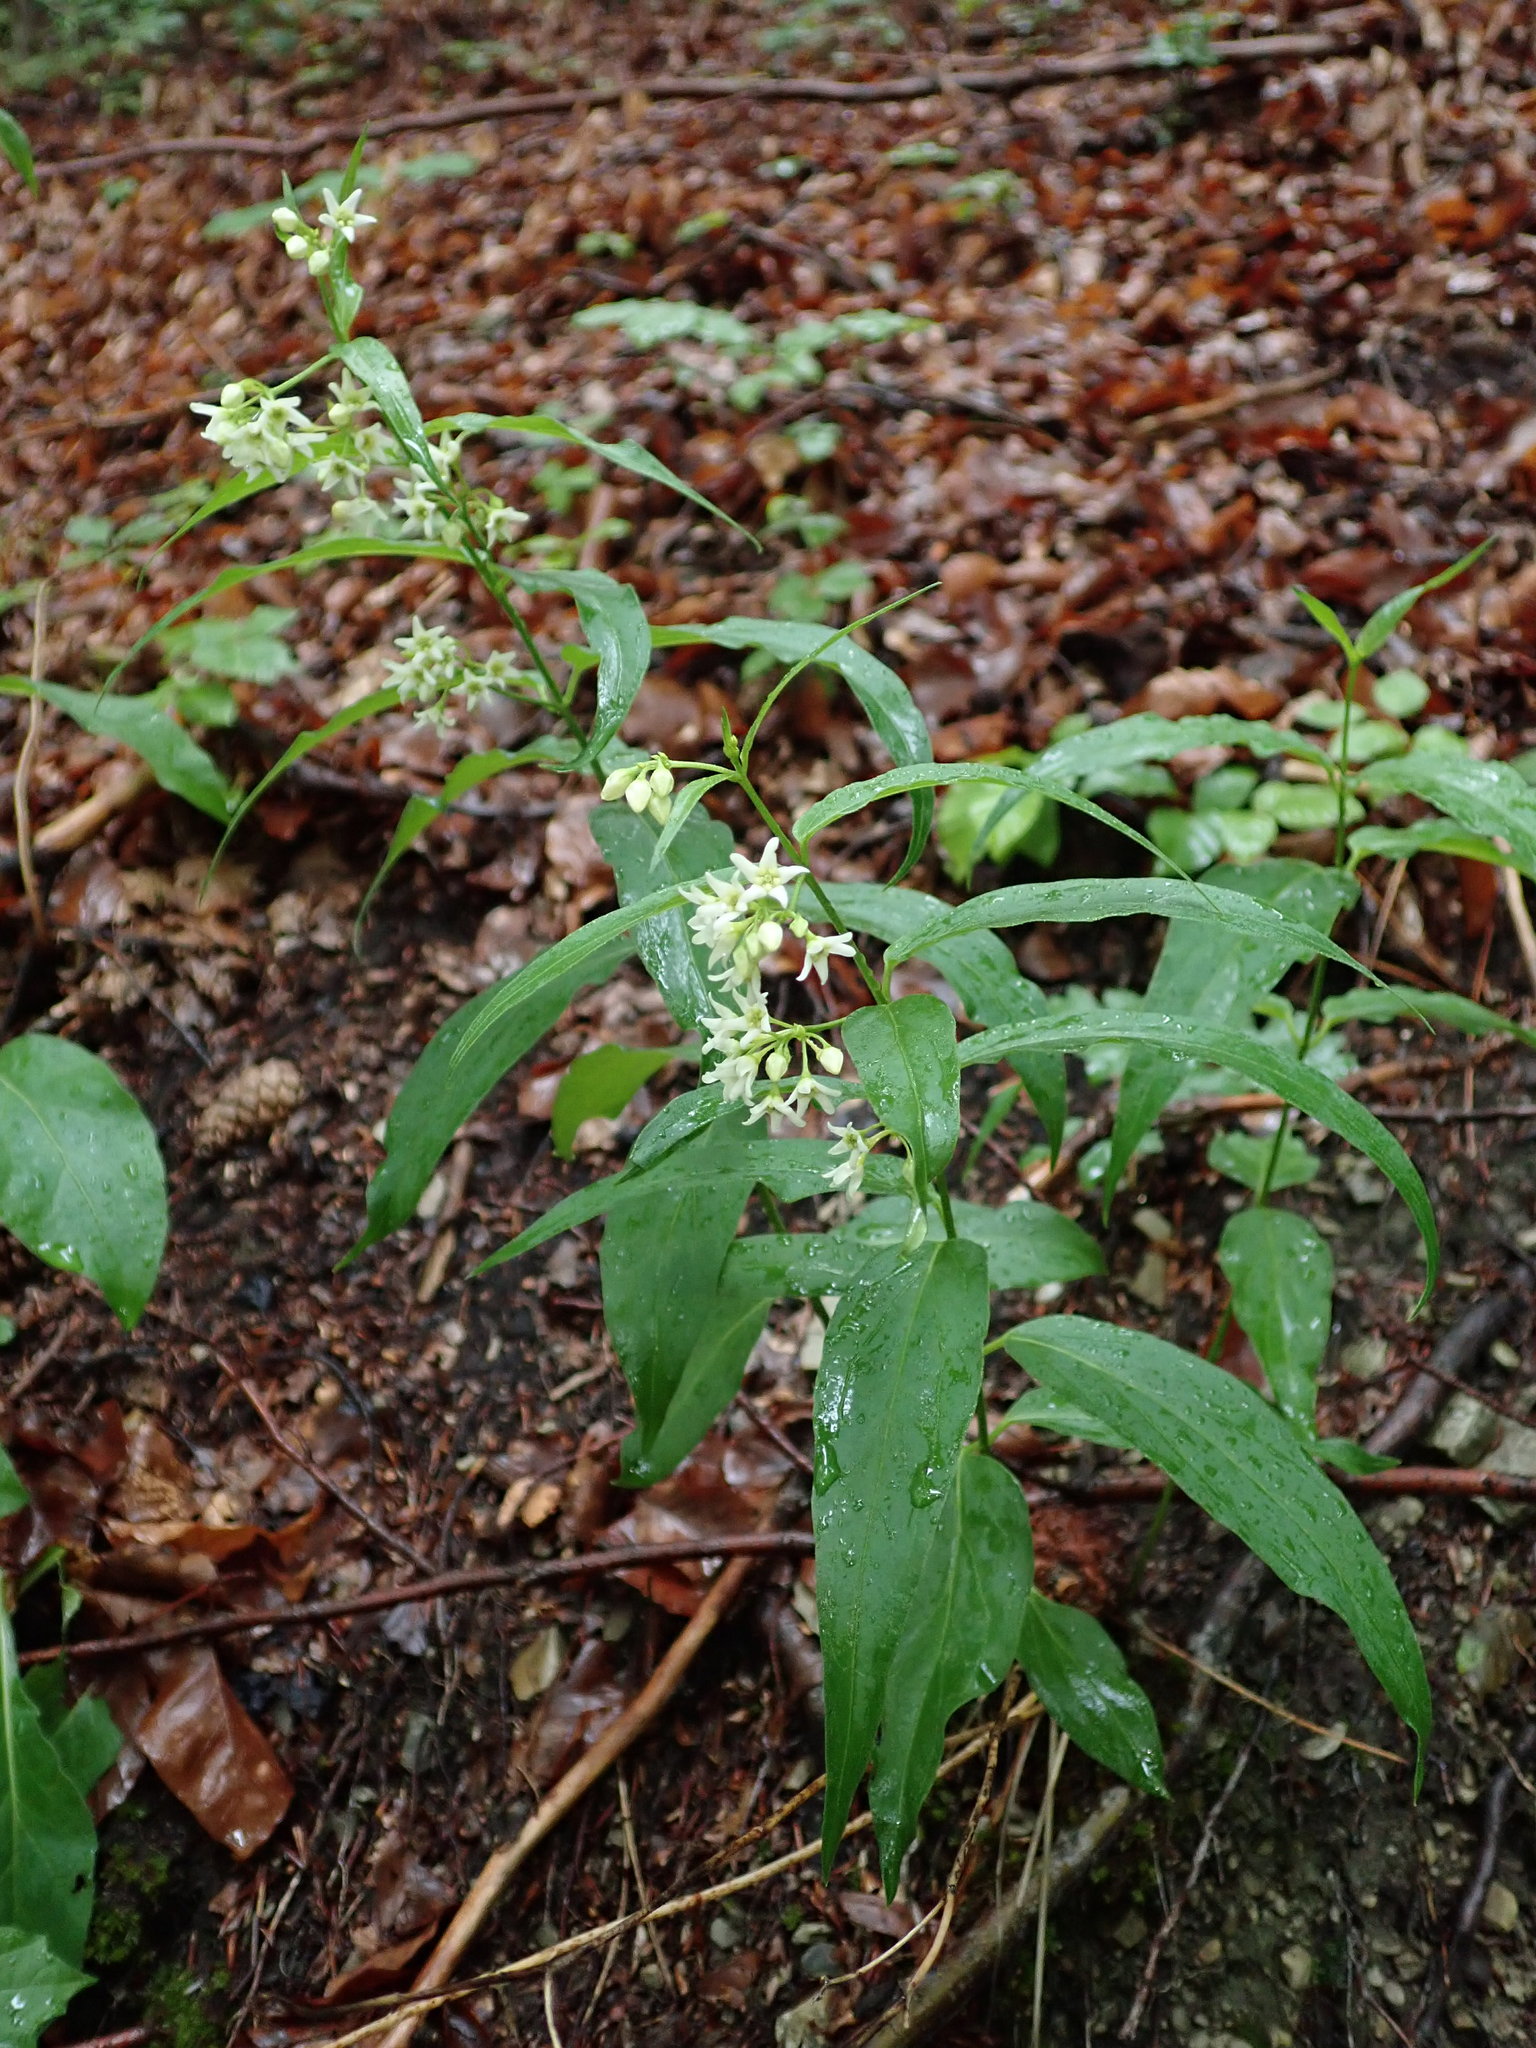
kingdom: Plantae
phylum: Tracheophyta
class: Magnoliopsida
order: Gentianales
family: Apocynaceae
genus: Vincetoxicum
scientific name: Vincetoxicum hirundinaria
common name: White swallowwort
